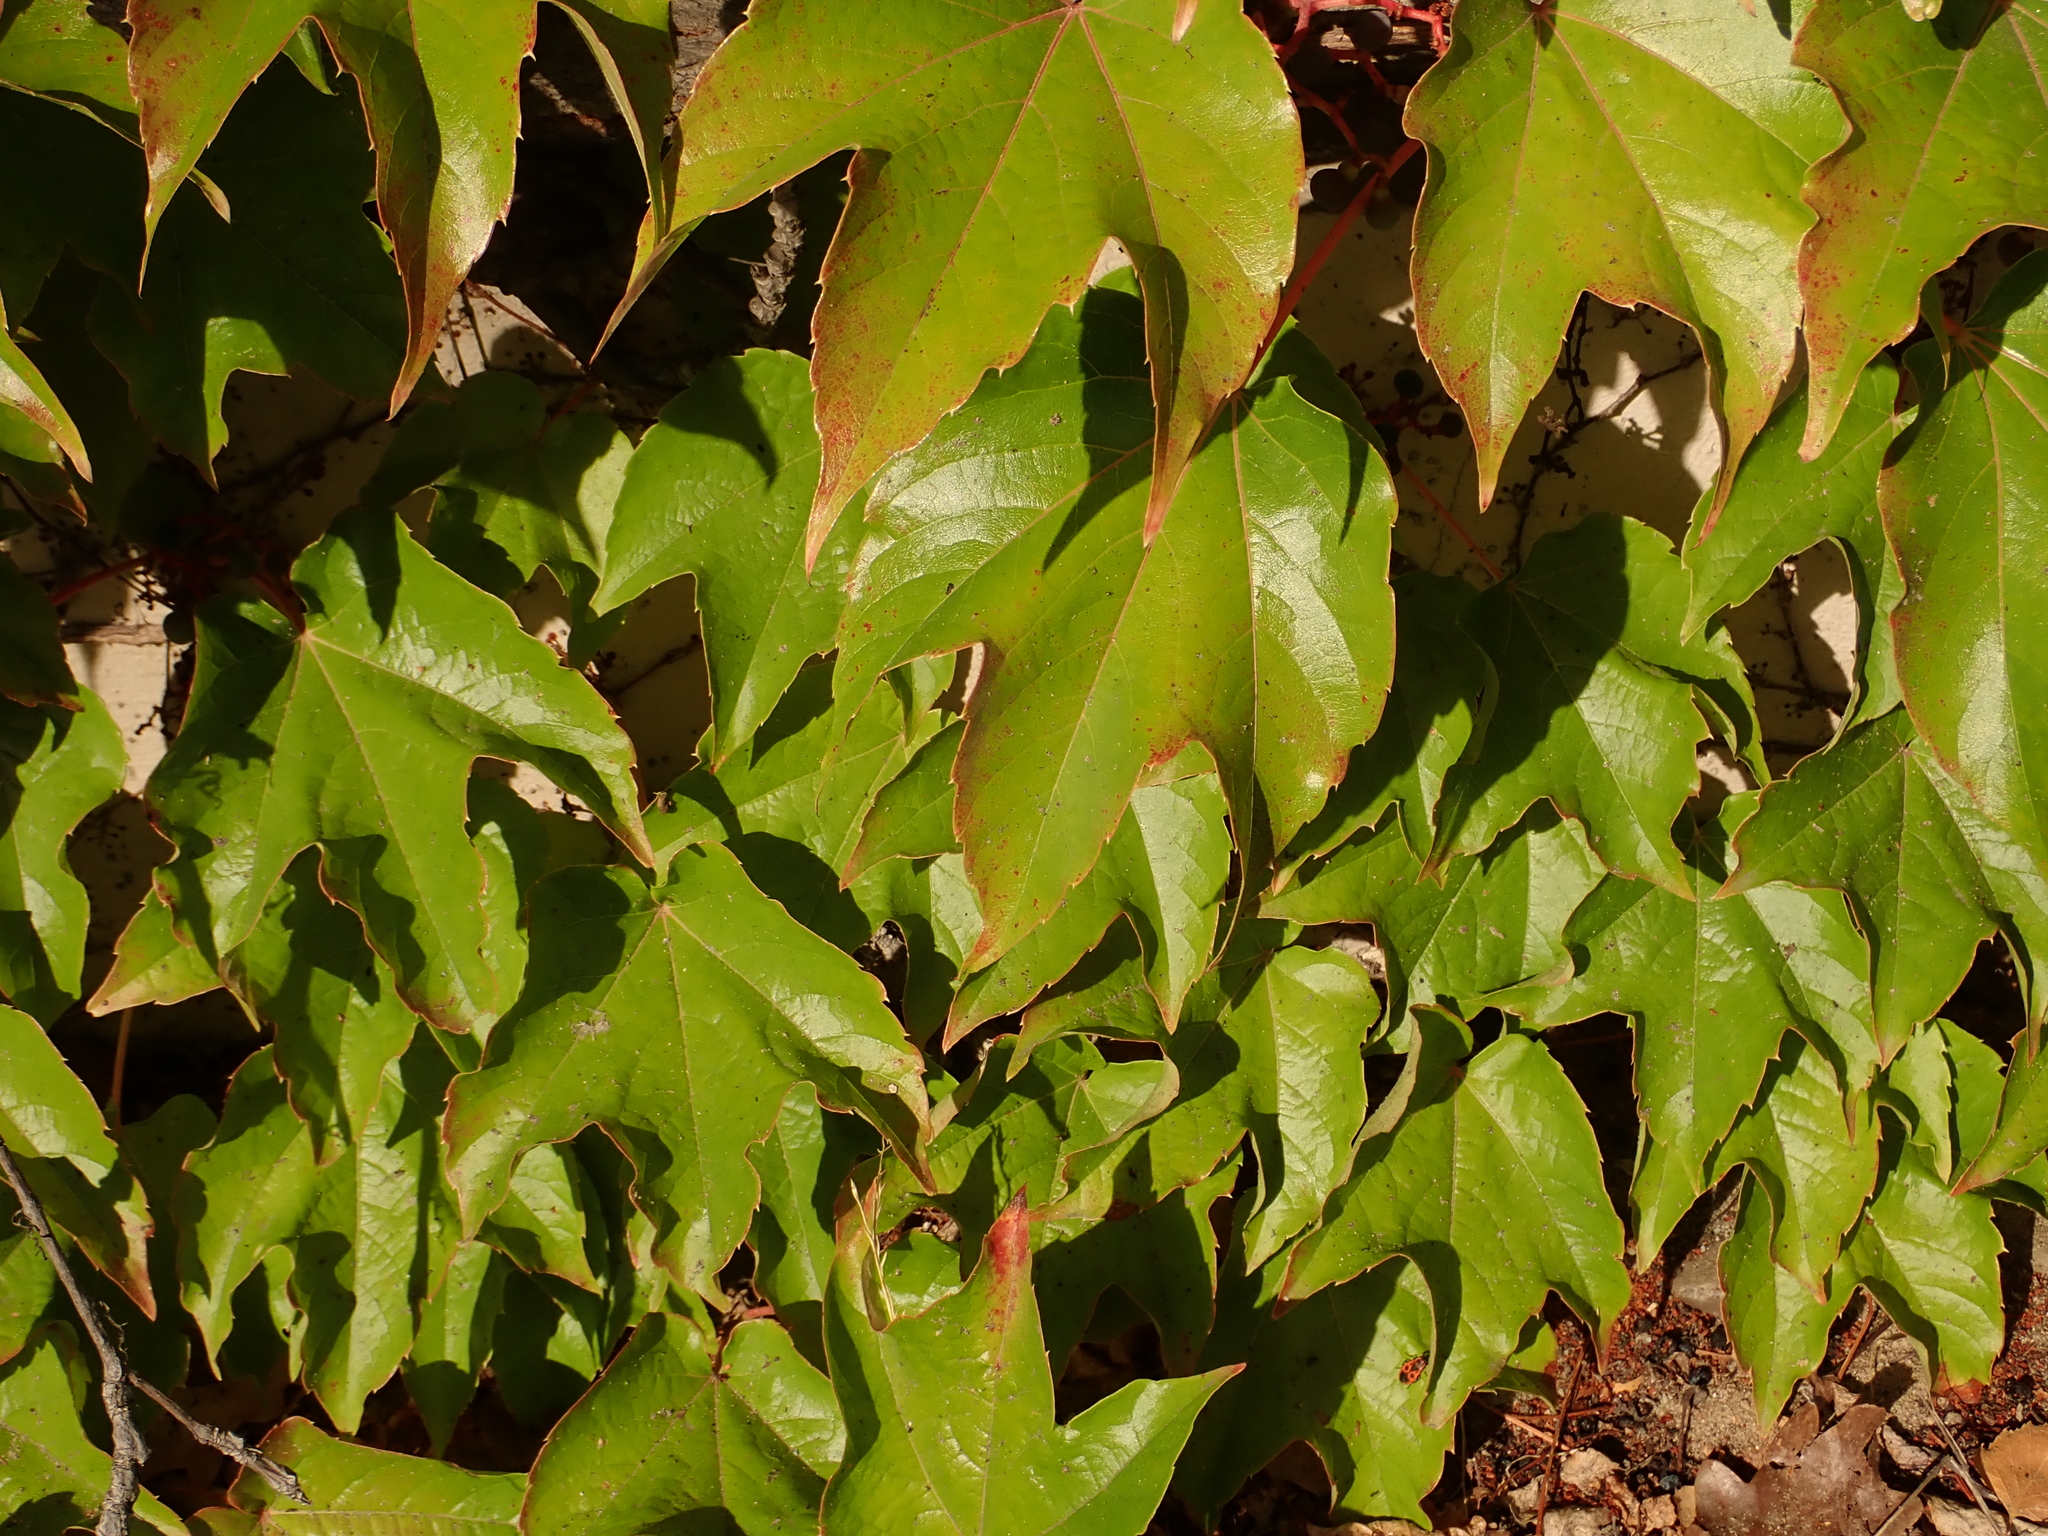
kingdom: Plantae
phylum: Tracheophyta
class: Magnoliopsida
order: Vitales
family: Vitaceae
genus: Parthenocissus
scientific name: Parthenocissus tricuspidata
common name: Boston ivy
